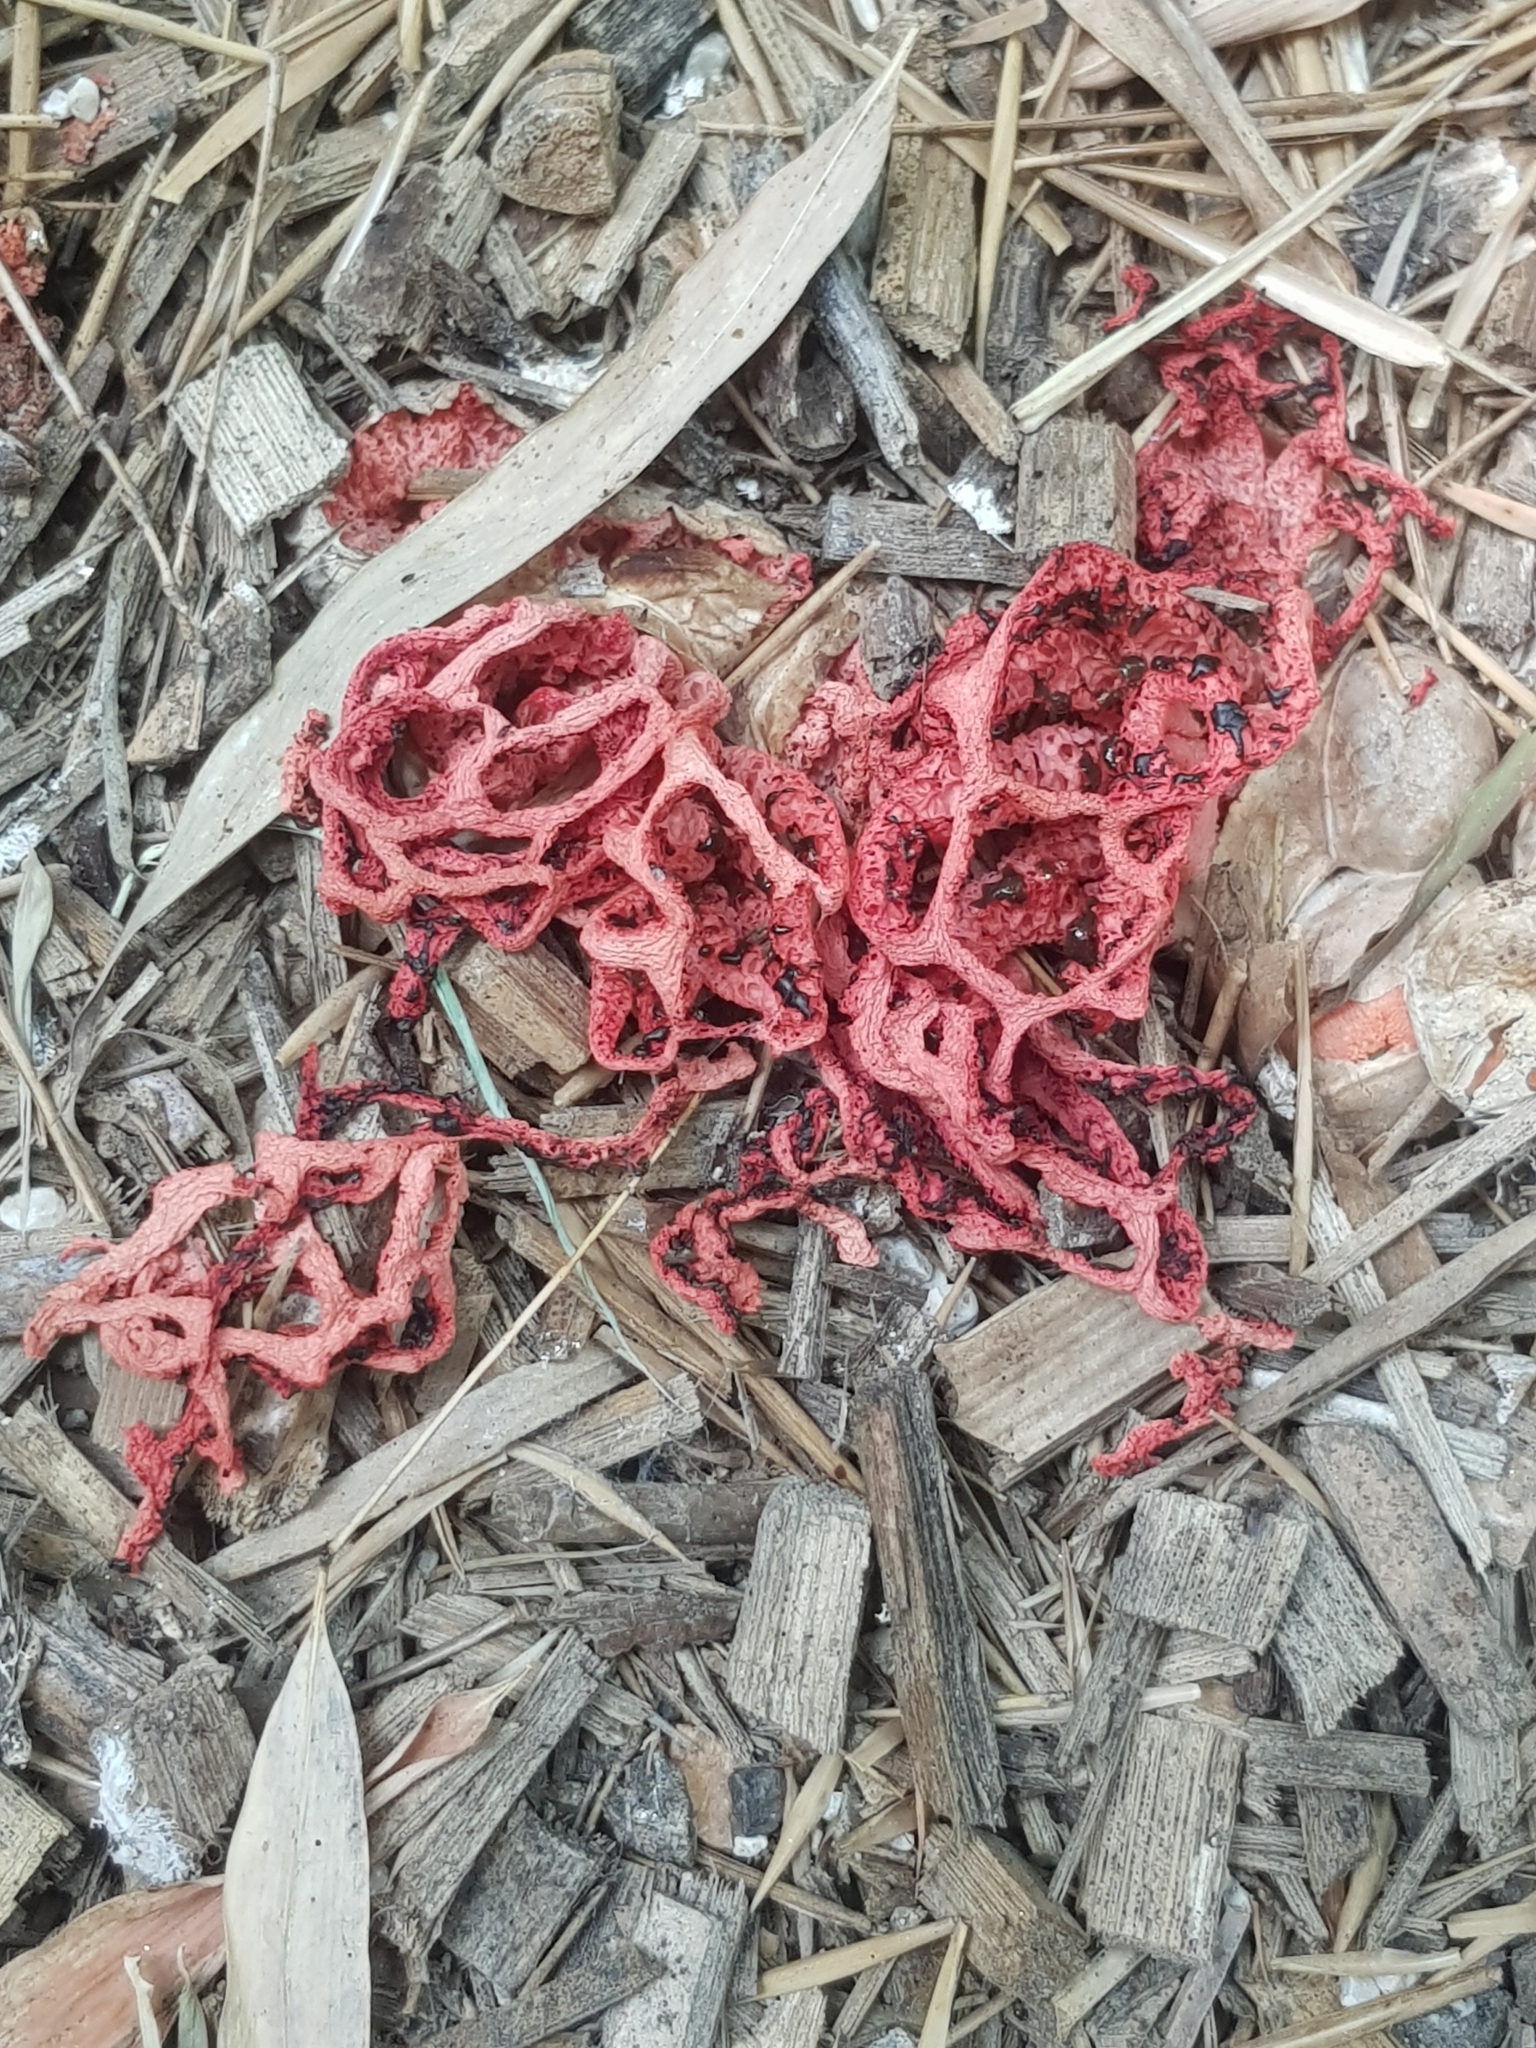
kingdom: Fungi
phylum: Basidiomycota
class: Agaricomycetes
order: Phallales
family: Phallaceae
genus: Clathrus
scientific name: Clathrus ruber
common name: Red cage
